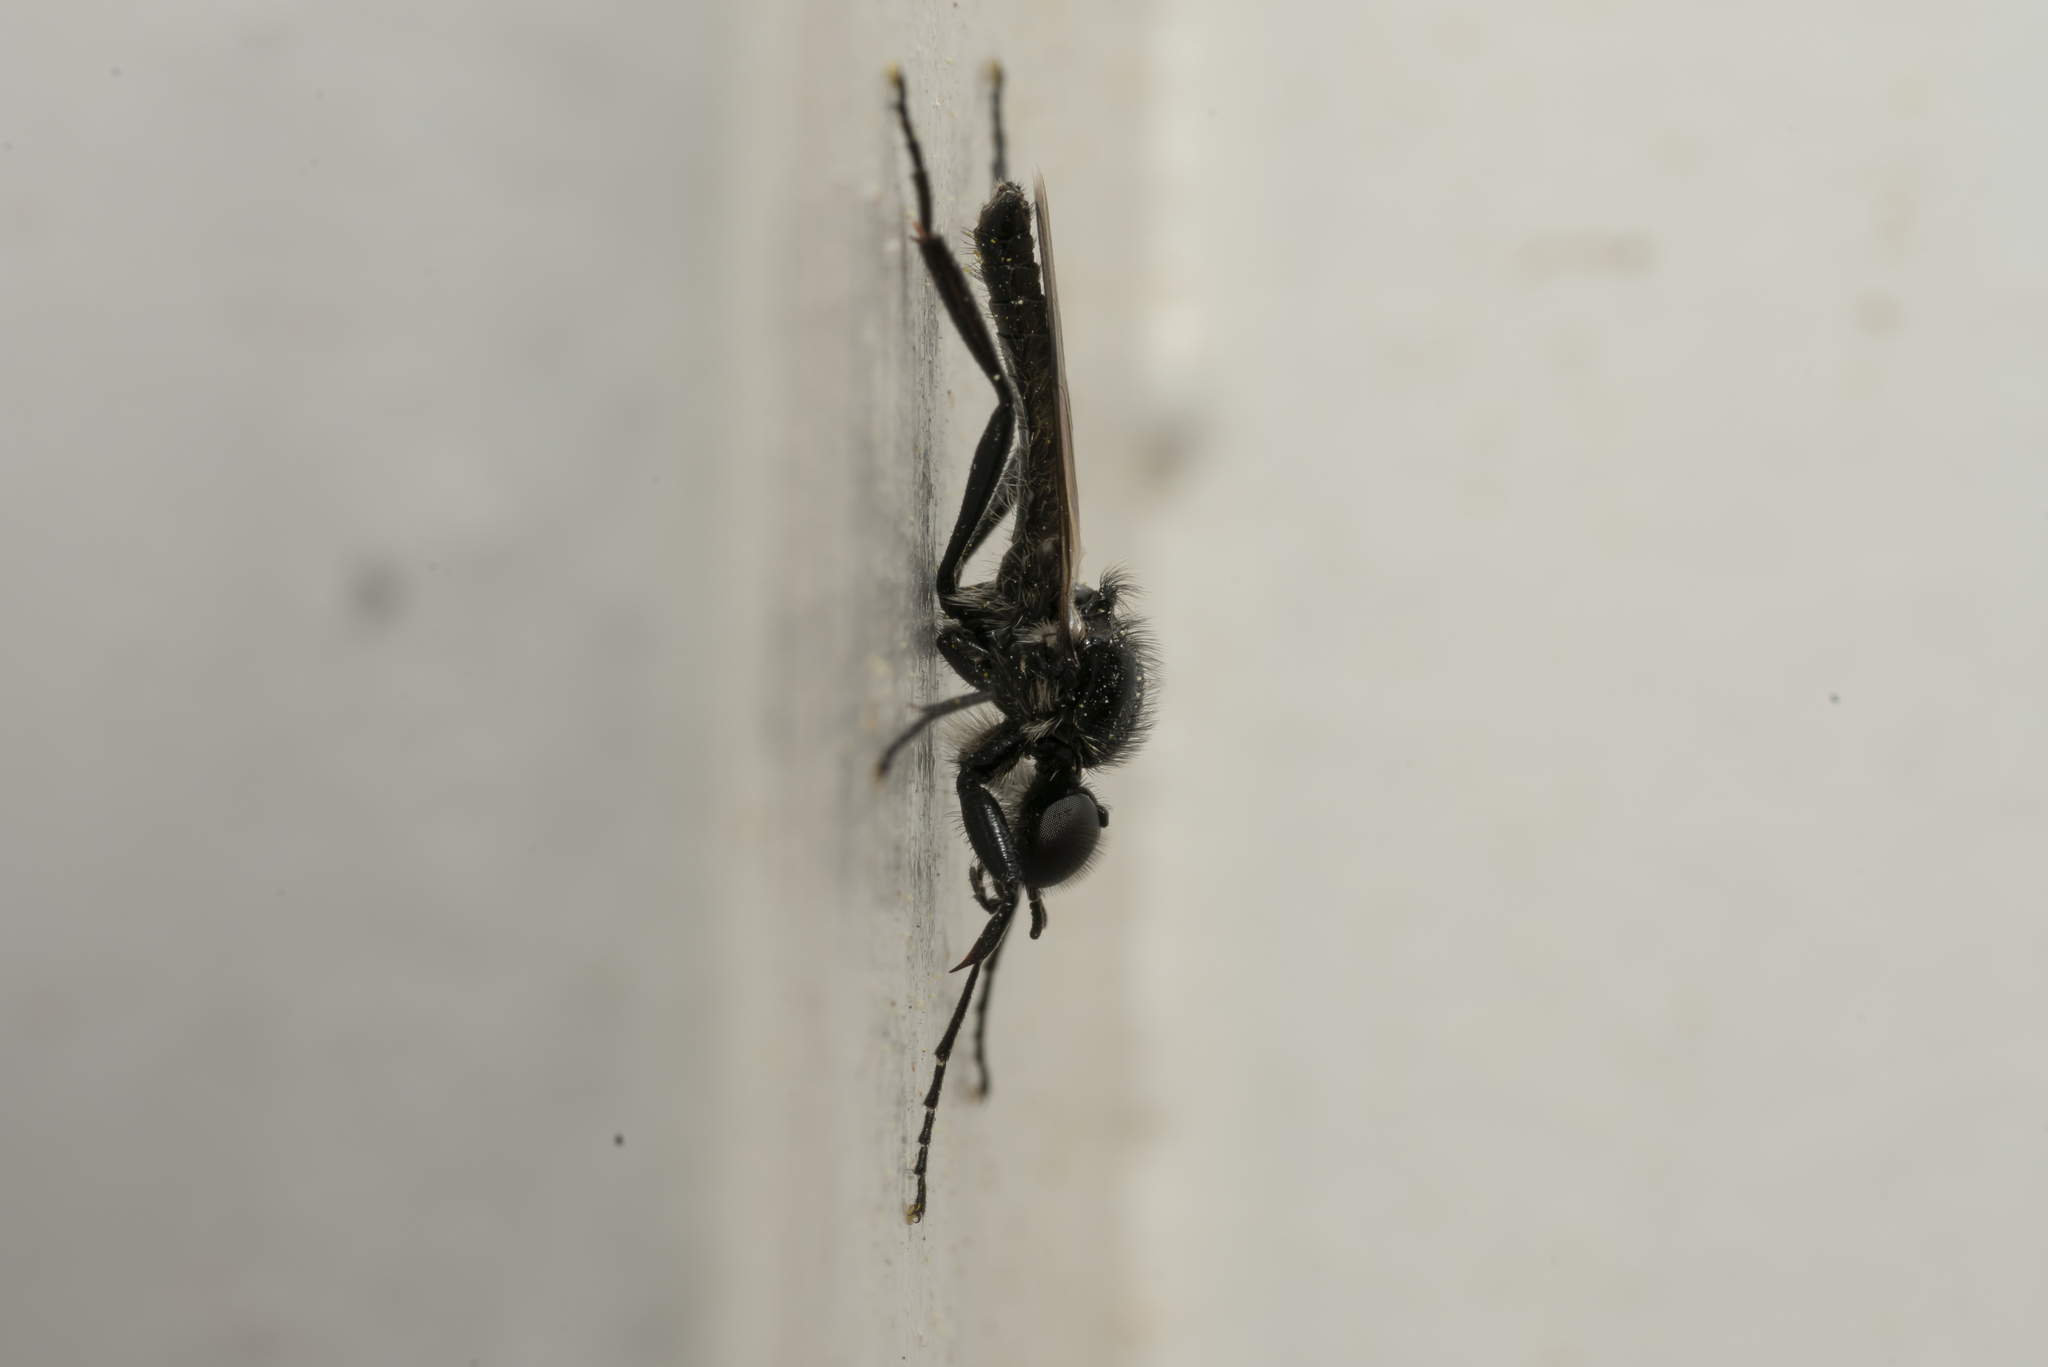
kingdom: Animalia
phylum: Arthropoda
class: Insecta
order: Diptera
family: Bibionidae
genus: Bibio
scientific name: Bibio hortulanus
